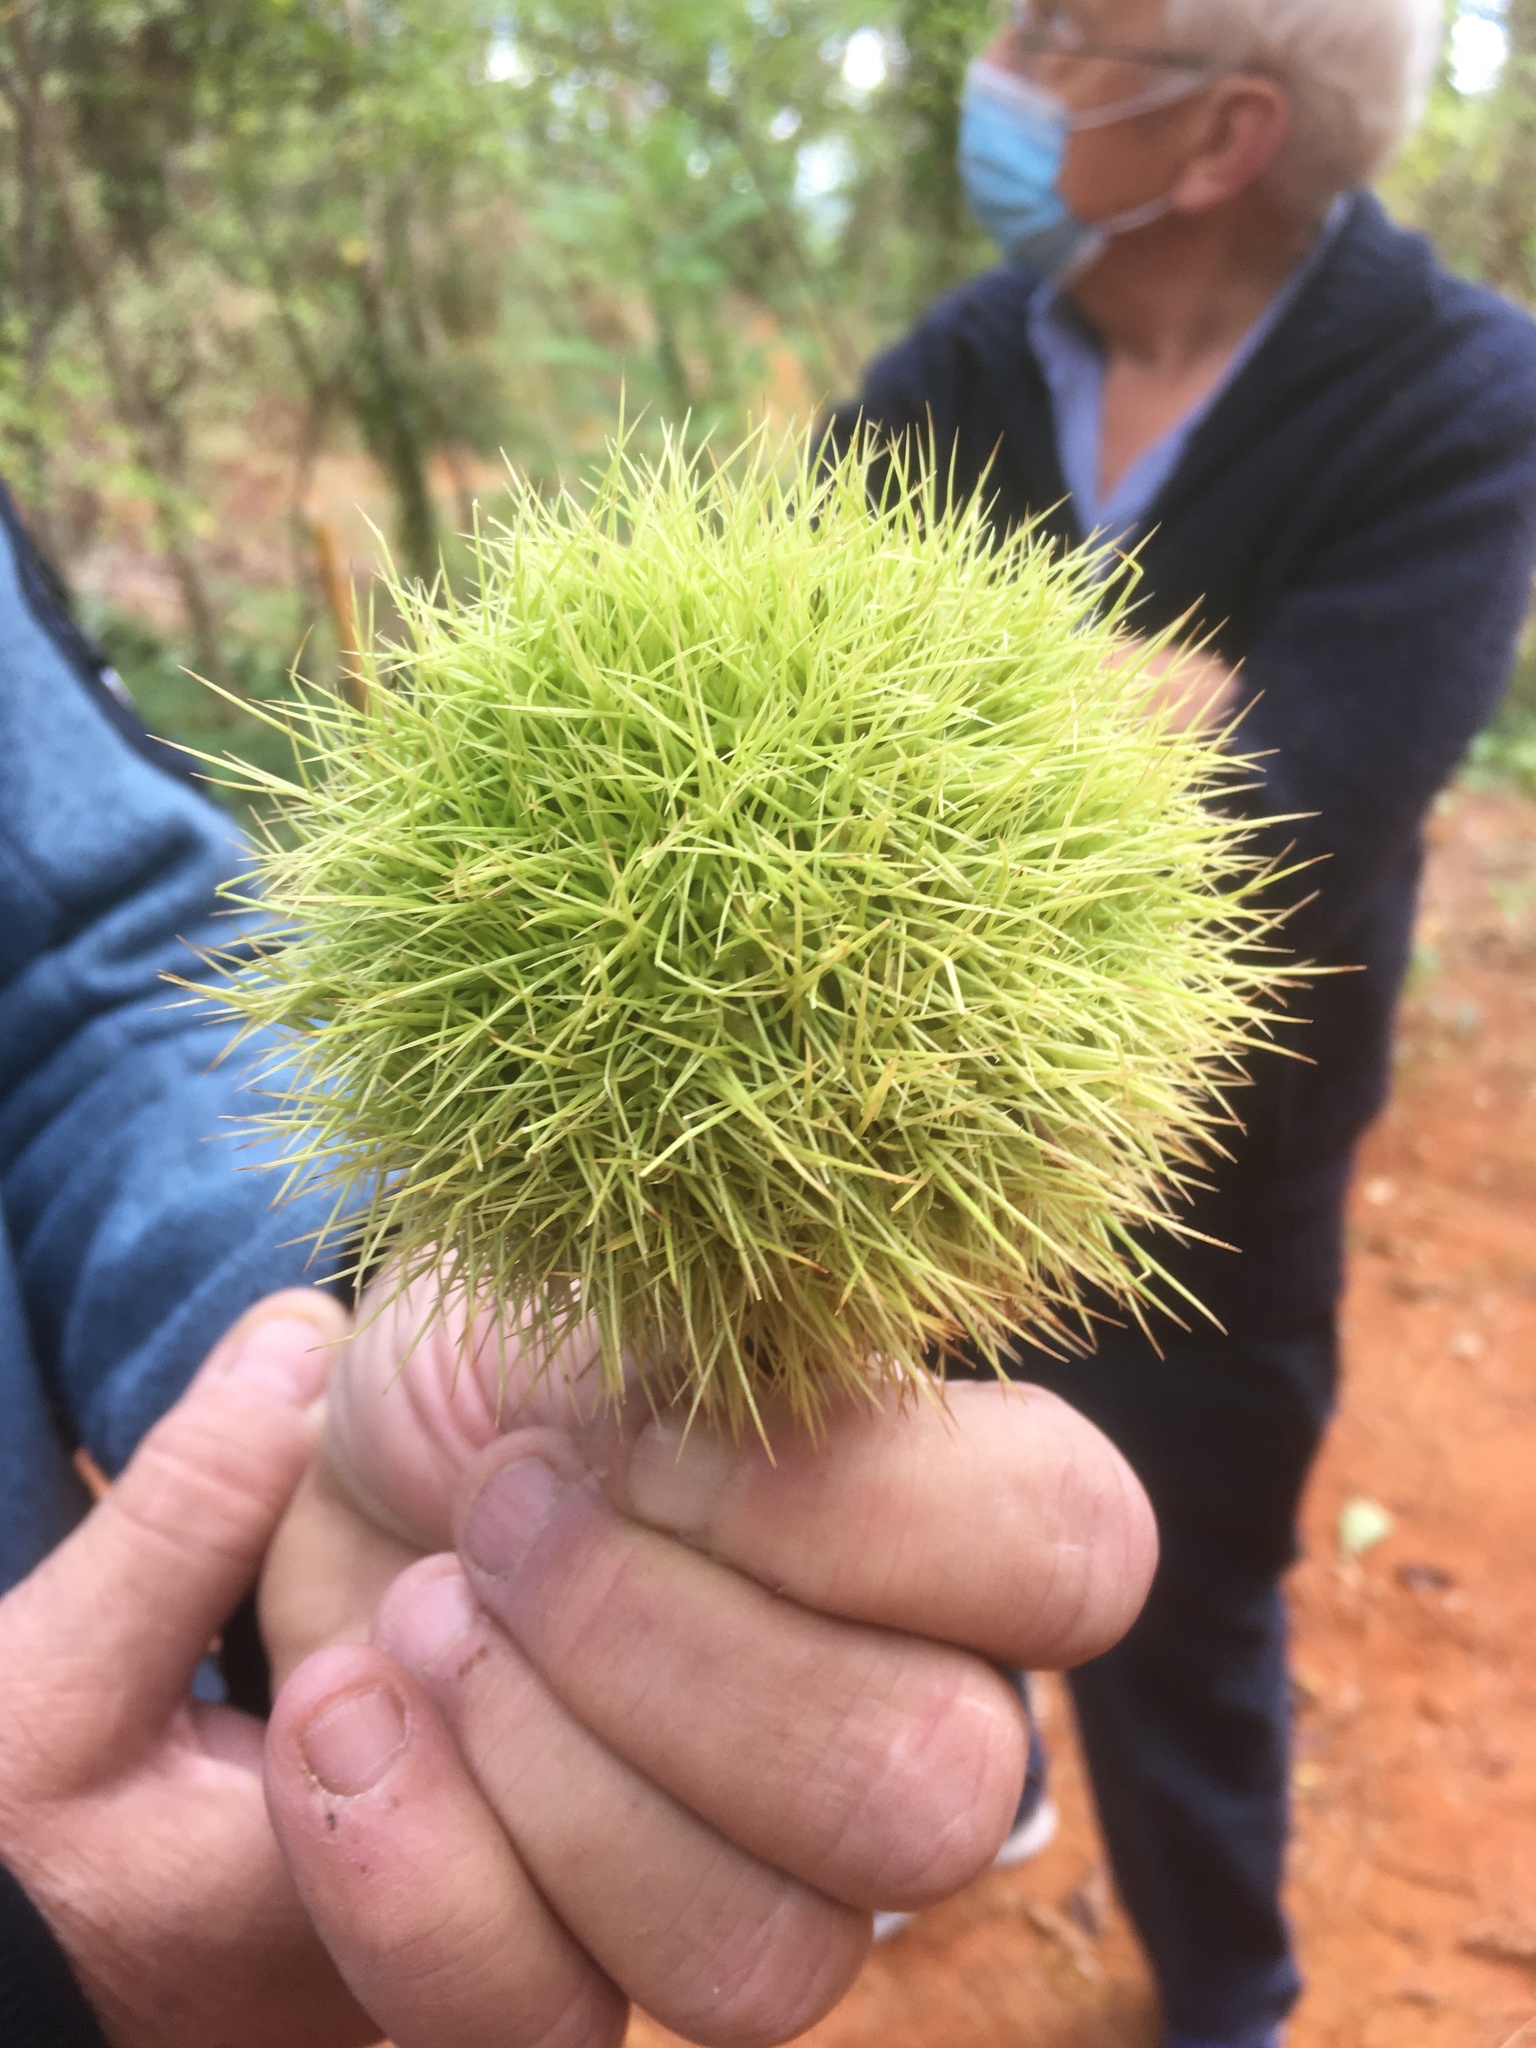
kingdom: Plantae
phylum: Tracheophyta
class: Magnoliopsida
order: Fagales
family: Fagaceae
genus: Castanea
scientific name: Castanea sativa
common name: Sweet chestnut
